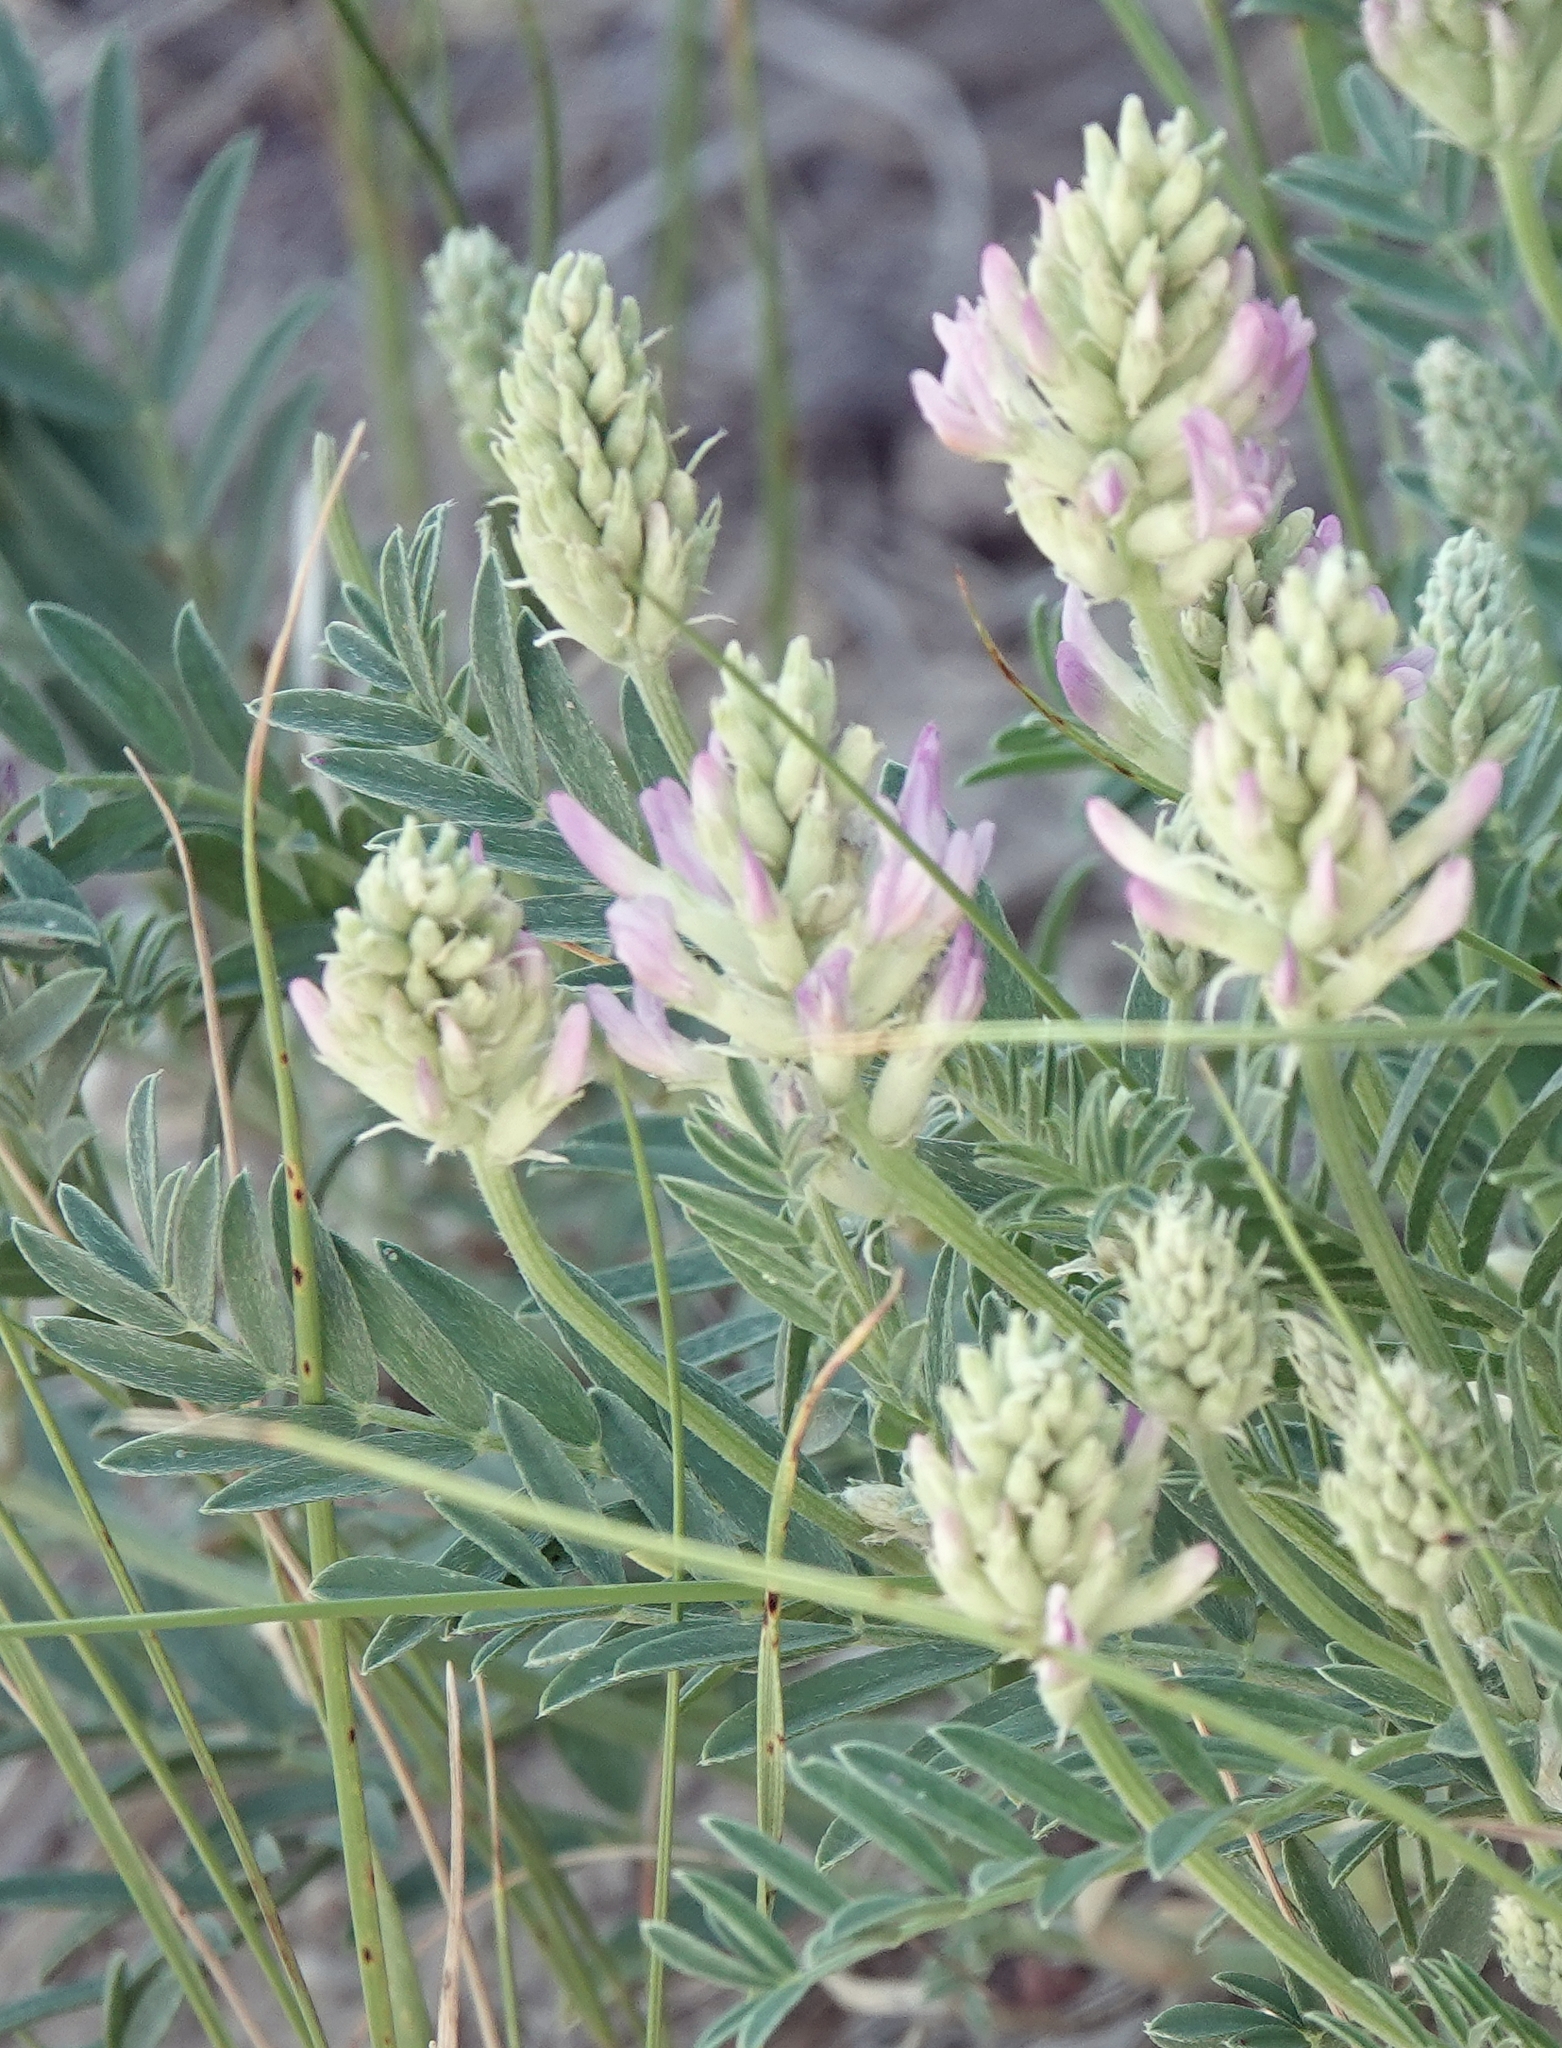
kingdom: Plantae
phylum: Tracheophyta
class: Magnoliopsida
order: Fabales
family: Fabaceae
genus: Astragalus
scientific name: Astragalus laxmannii
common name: Laxmann's milk-vetch
